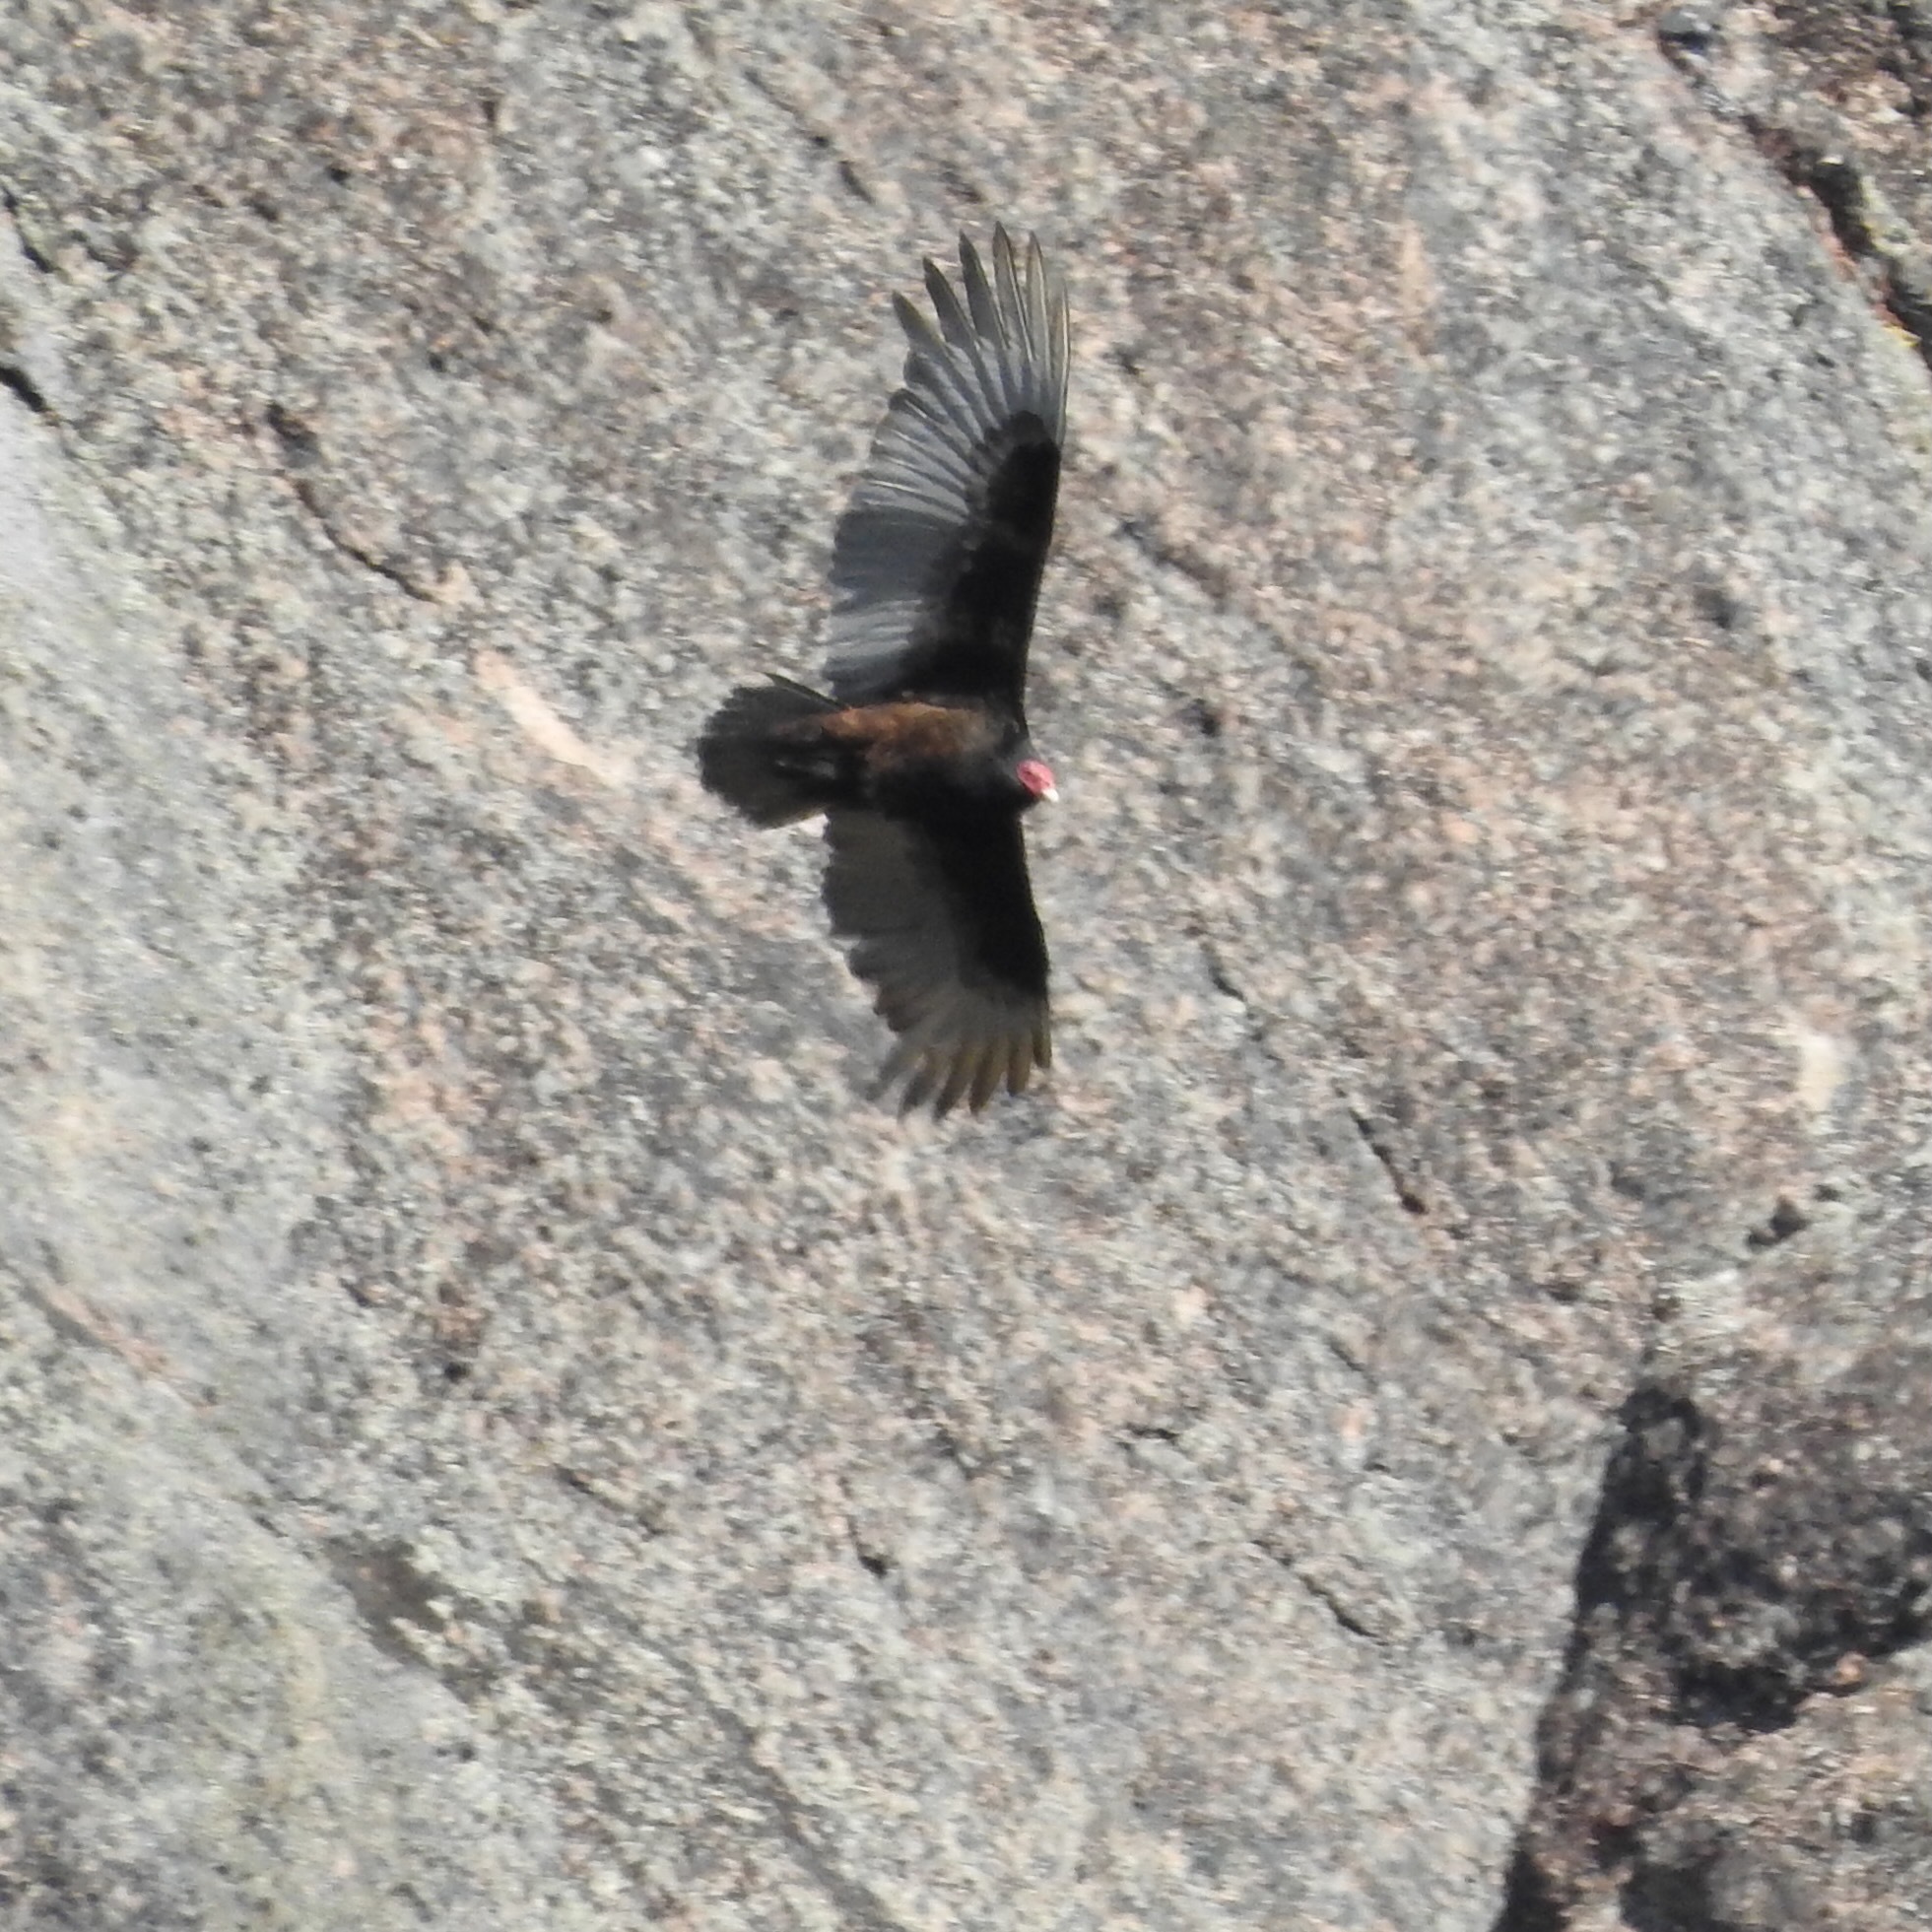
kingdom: Animalia
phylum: Chordata
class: Aves
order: Accipitriformes
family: Cathartidae
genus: Cathartes
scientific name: Cathartes aura
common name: Turkey vulture
